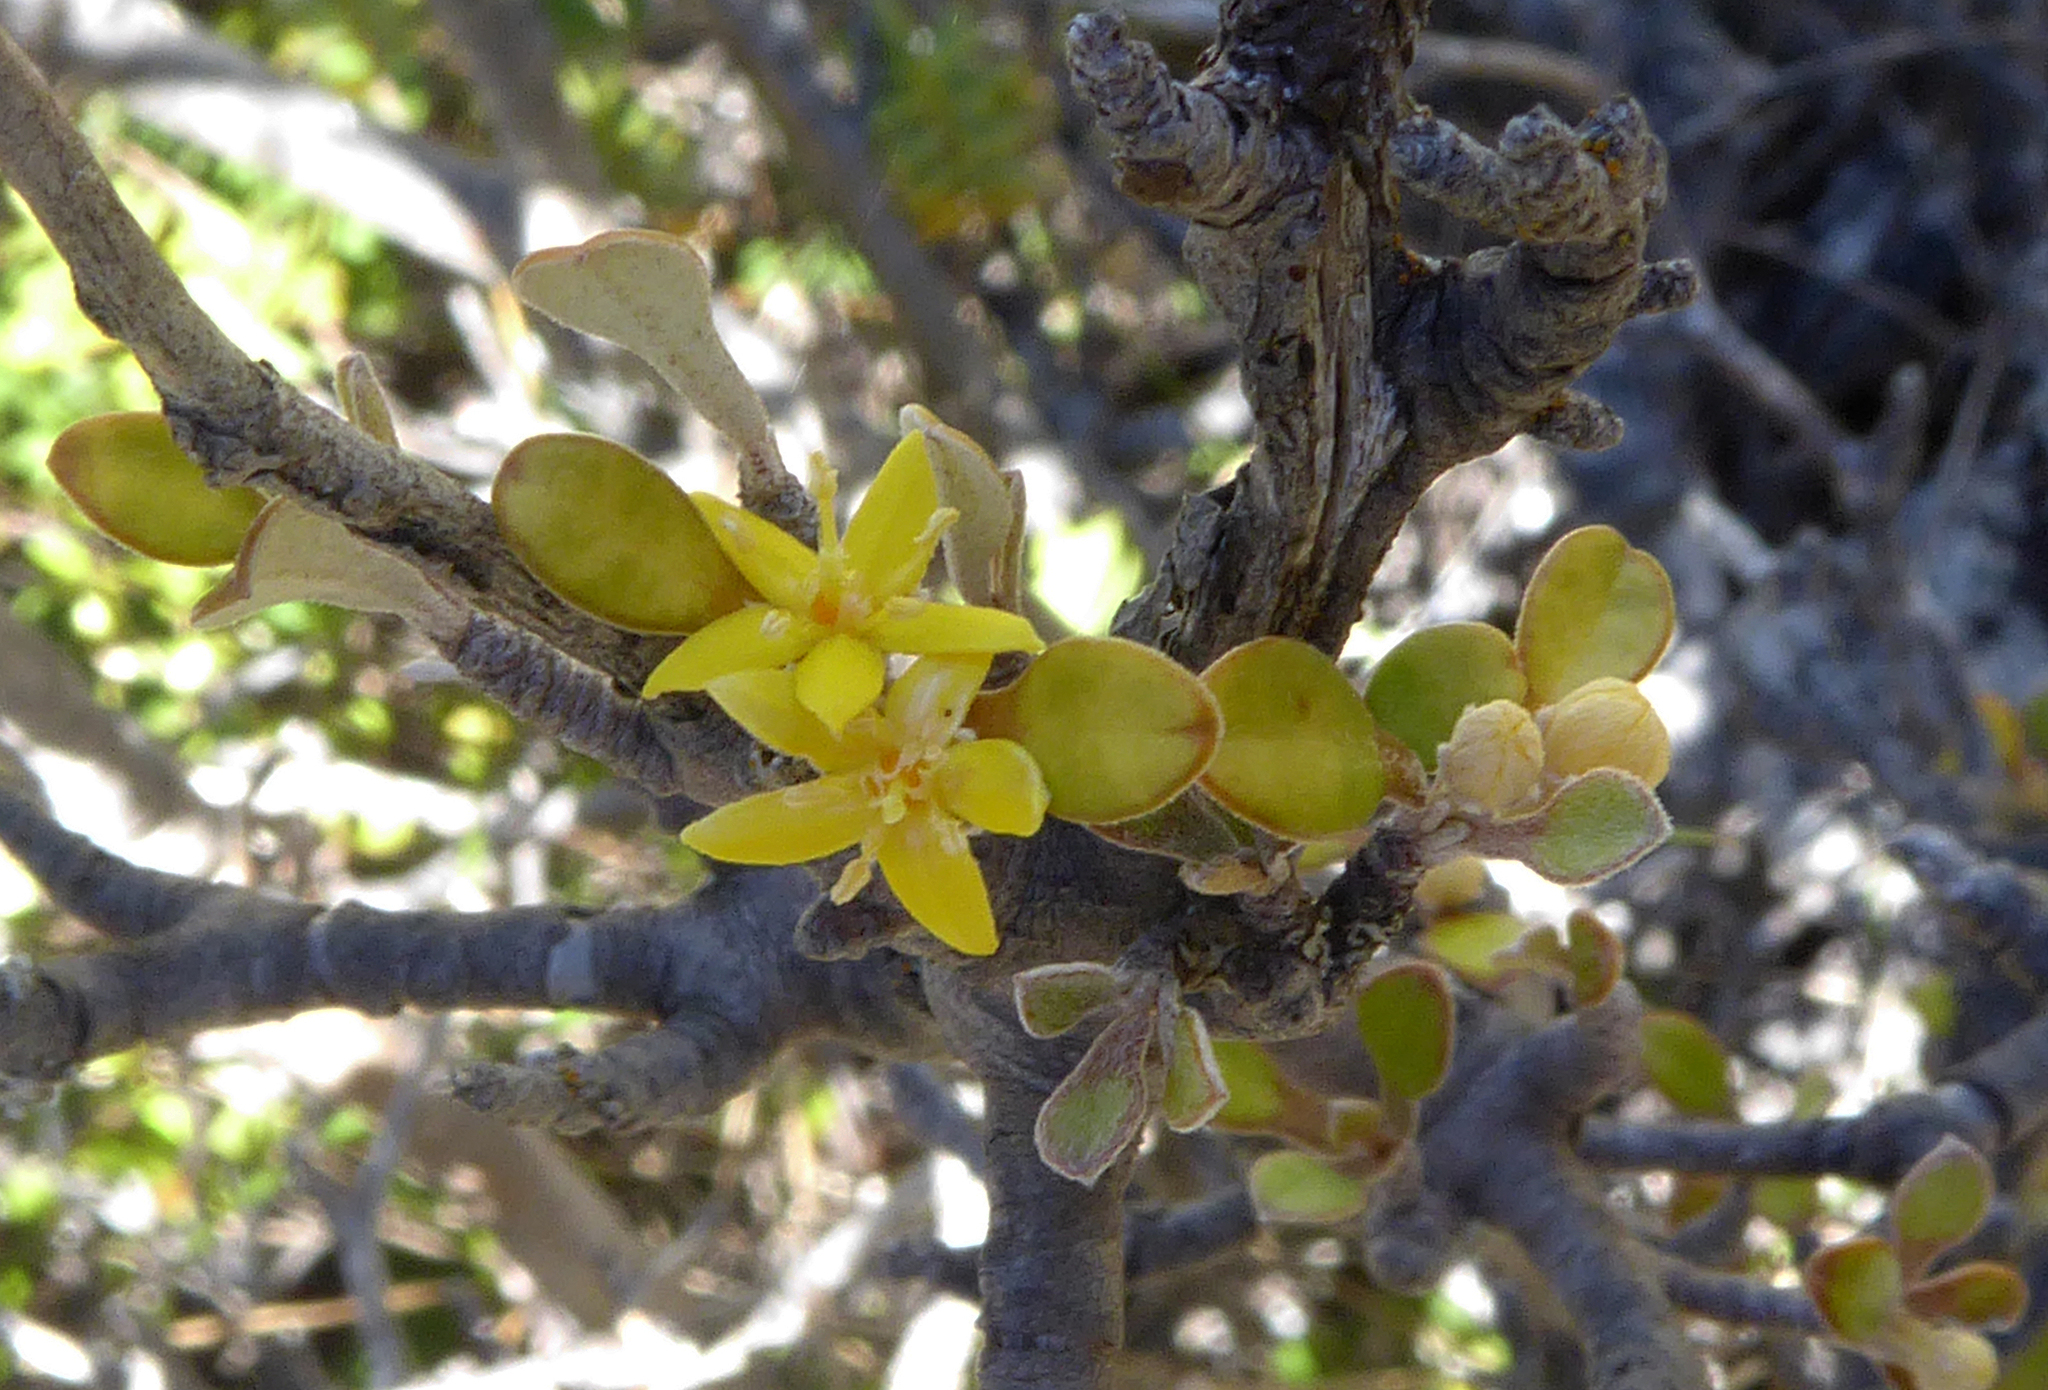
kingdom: Plantae
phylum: Tracheophyta
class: Magnoliopsida
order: Asterales
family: Argophyllaceae
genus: Corokia
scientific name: Corokia cotoneaster
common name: Wire nettingbush
